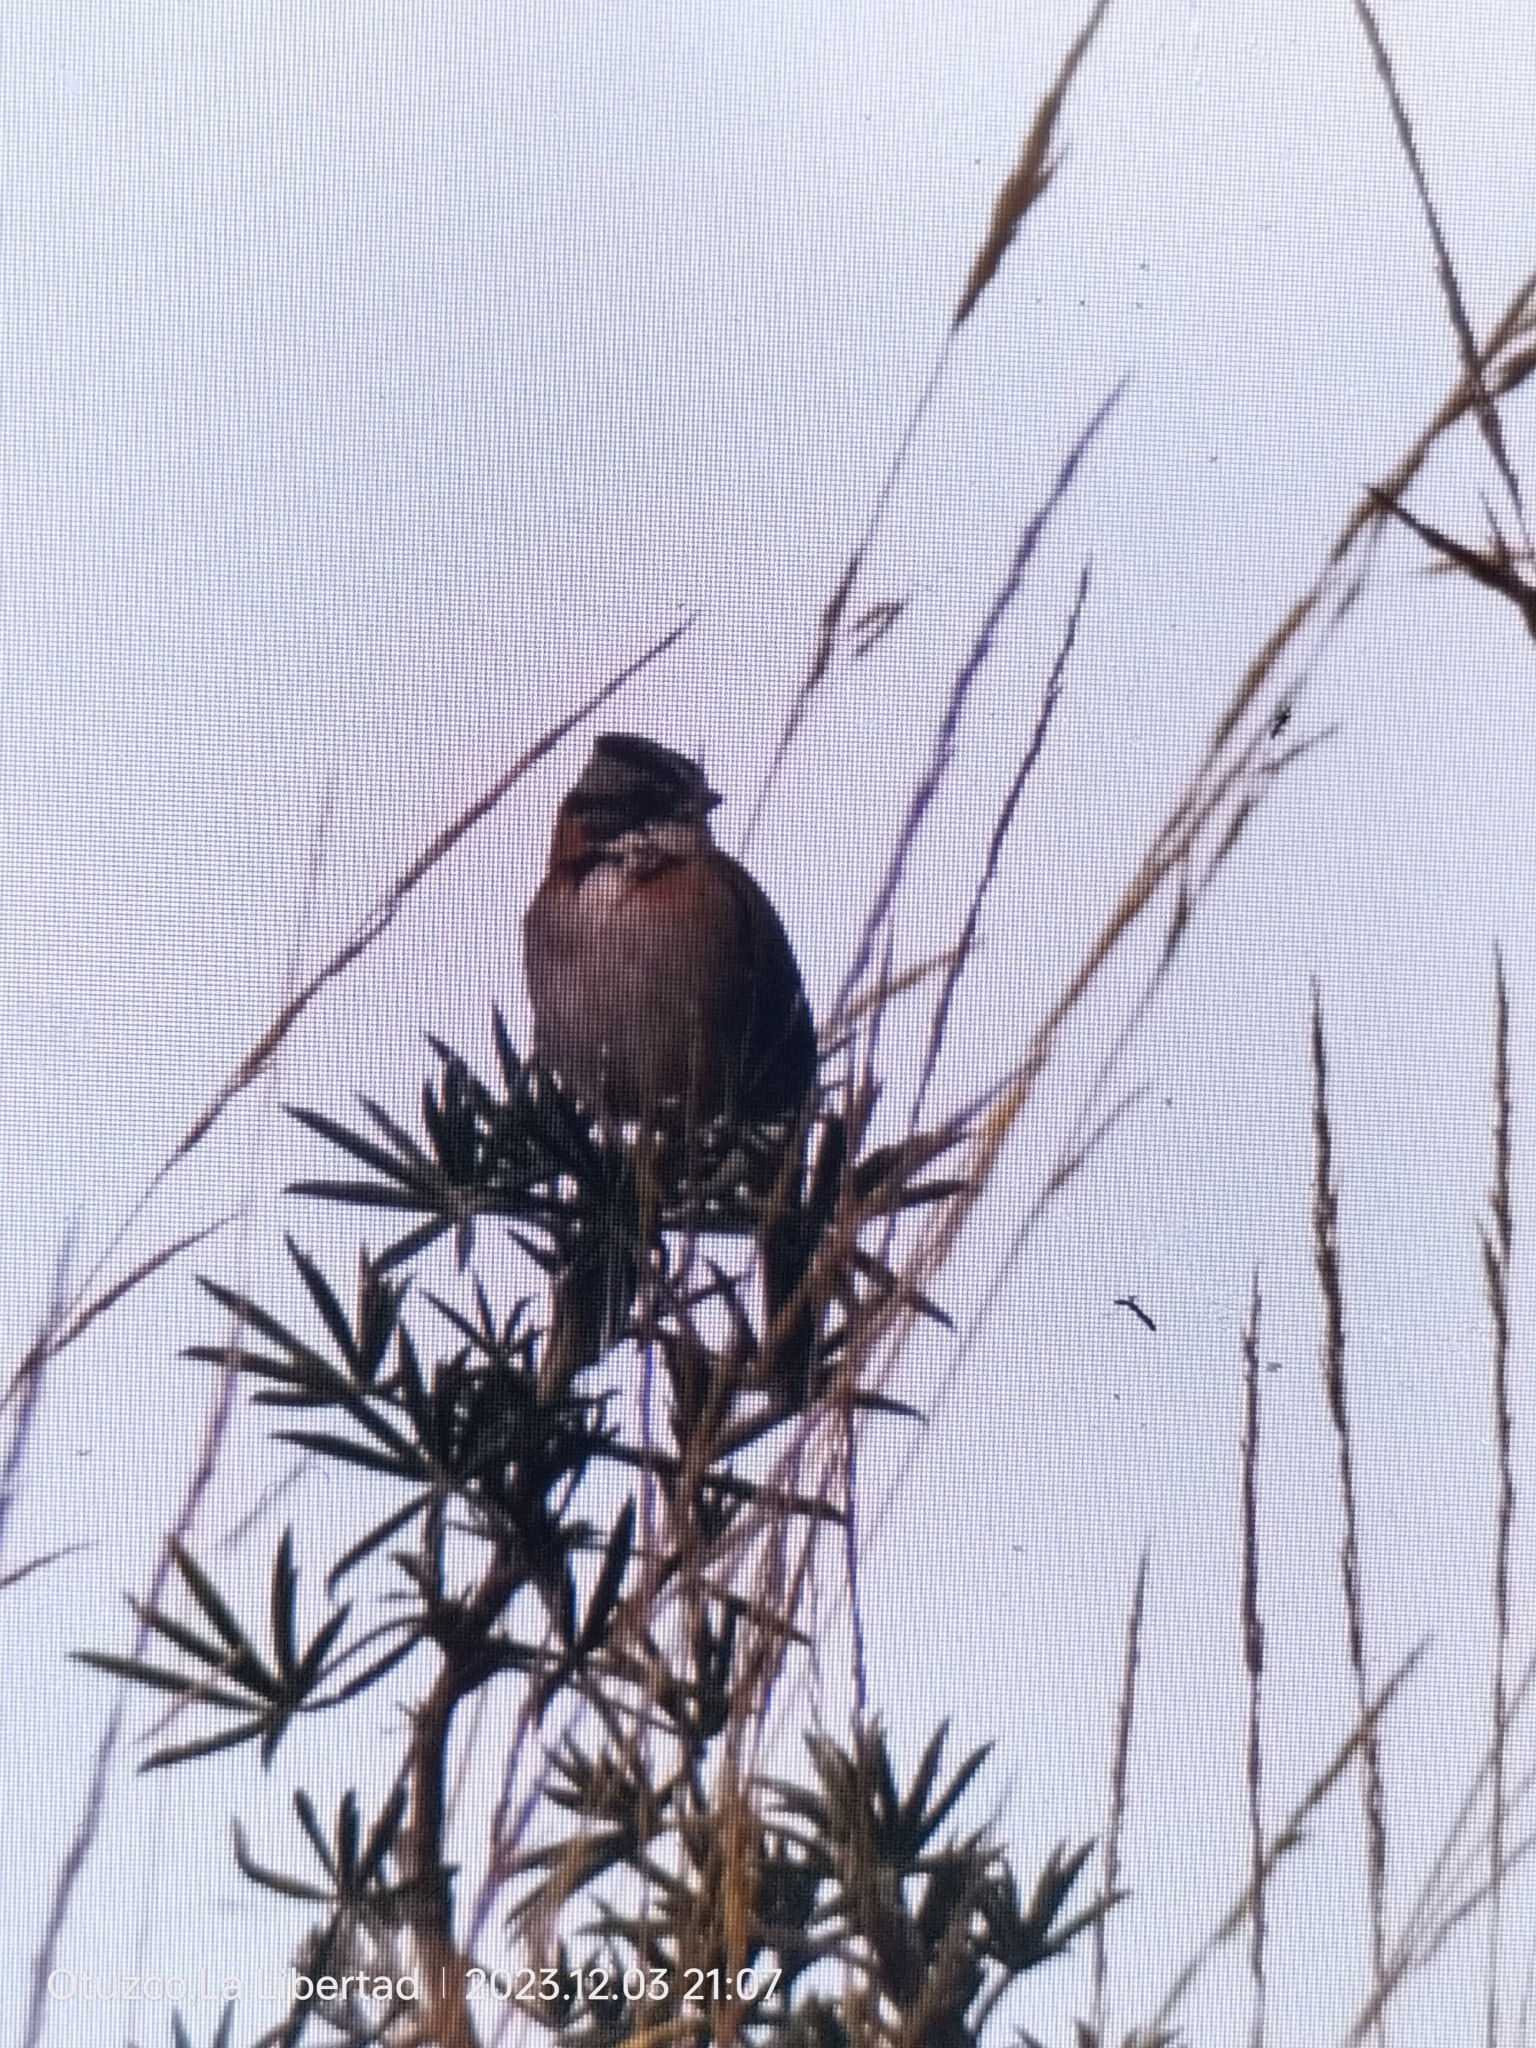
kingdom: Animalia
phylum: Chordata
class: Aves
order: Passeriformes
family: Passerellidae
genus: Zonotrichia
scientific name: Zonotrichia capensis
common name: Rufous-collared sparrow
